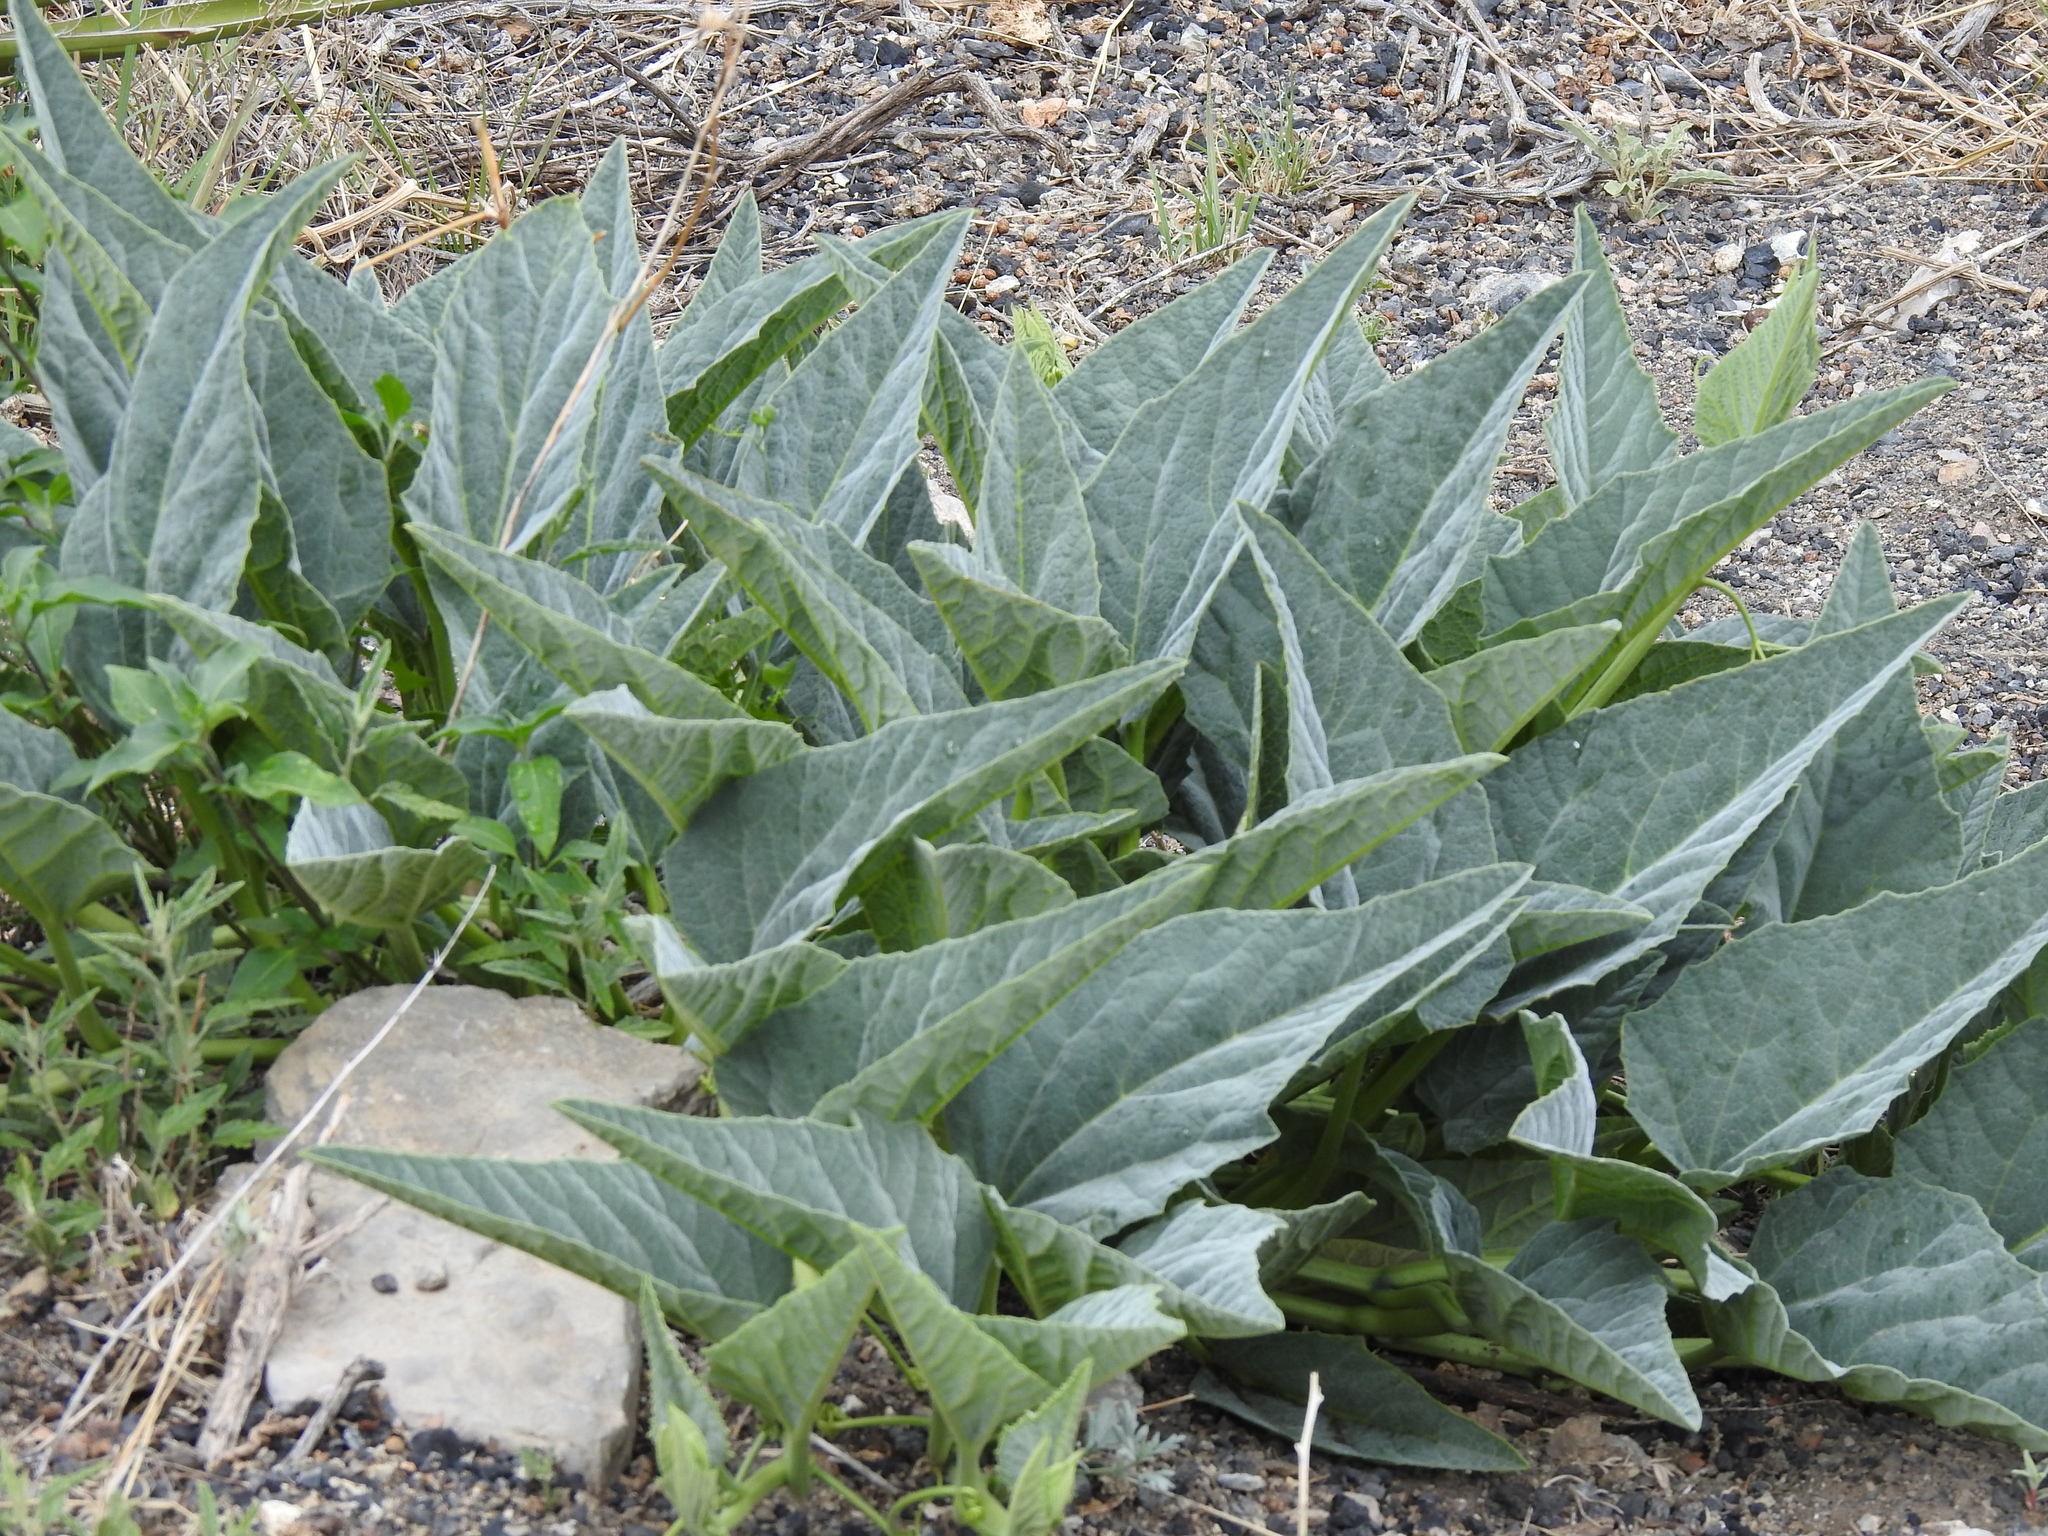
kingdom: Plantae
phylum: Tracheophyta
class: Magnoliopsida
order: Cucurbitales
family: Cucurbitaceae
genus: Cucurbita
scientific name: Cucurbita foetidissima
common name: Buffalo gourd
